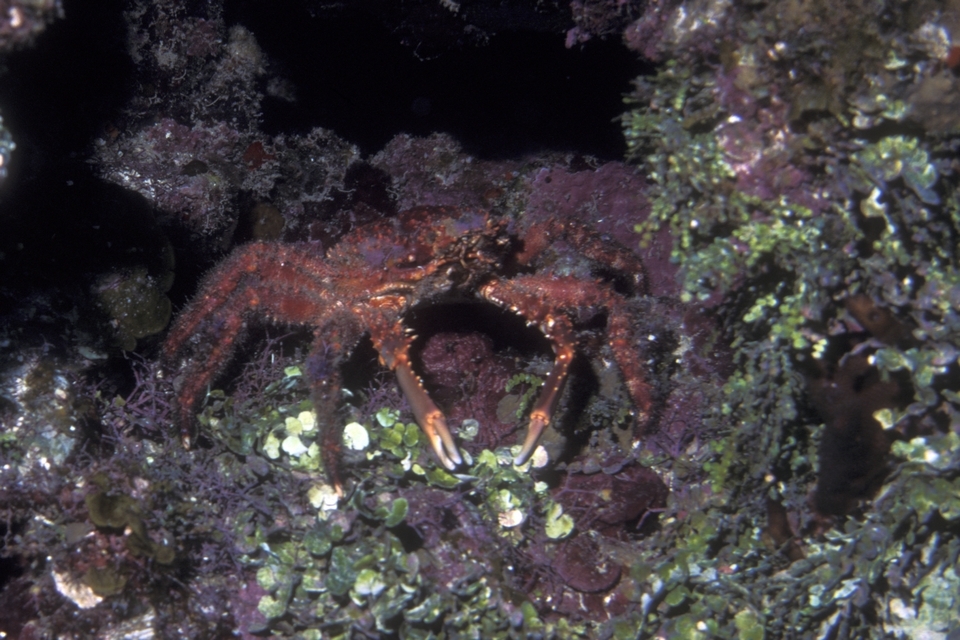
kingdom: Animalia
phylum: Arthropoda
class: Malacostraca
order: Decapoda
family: Mithracidae
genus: Amphithrax
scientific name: Amphithrax pilosus
